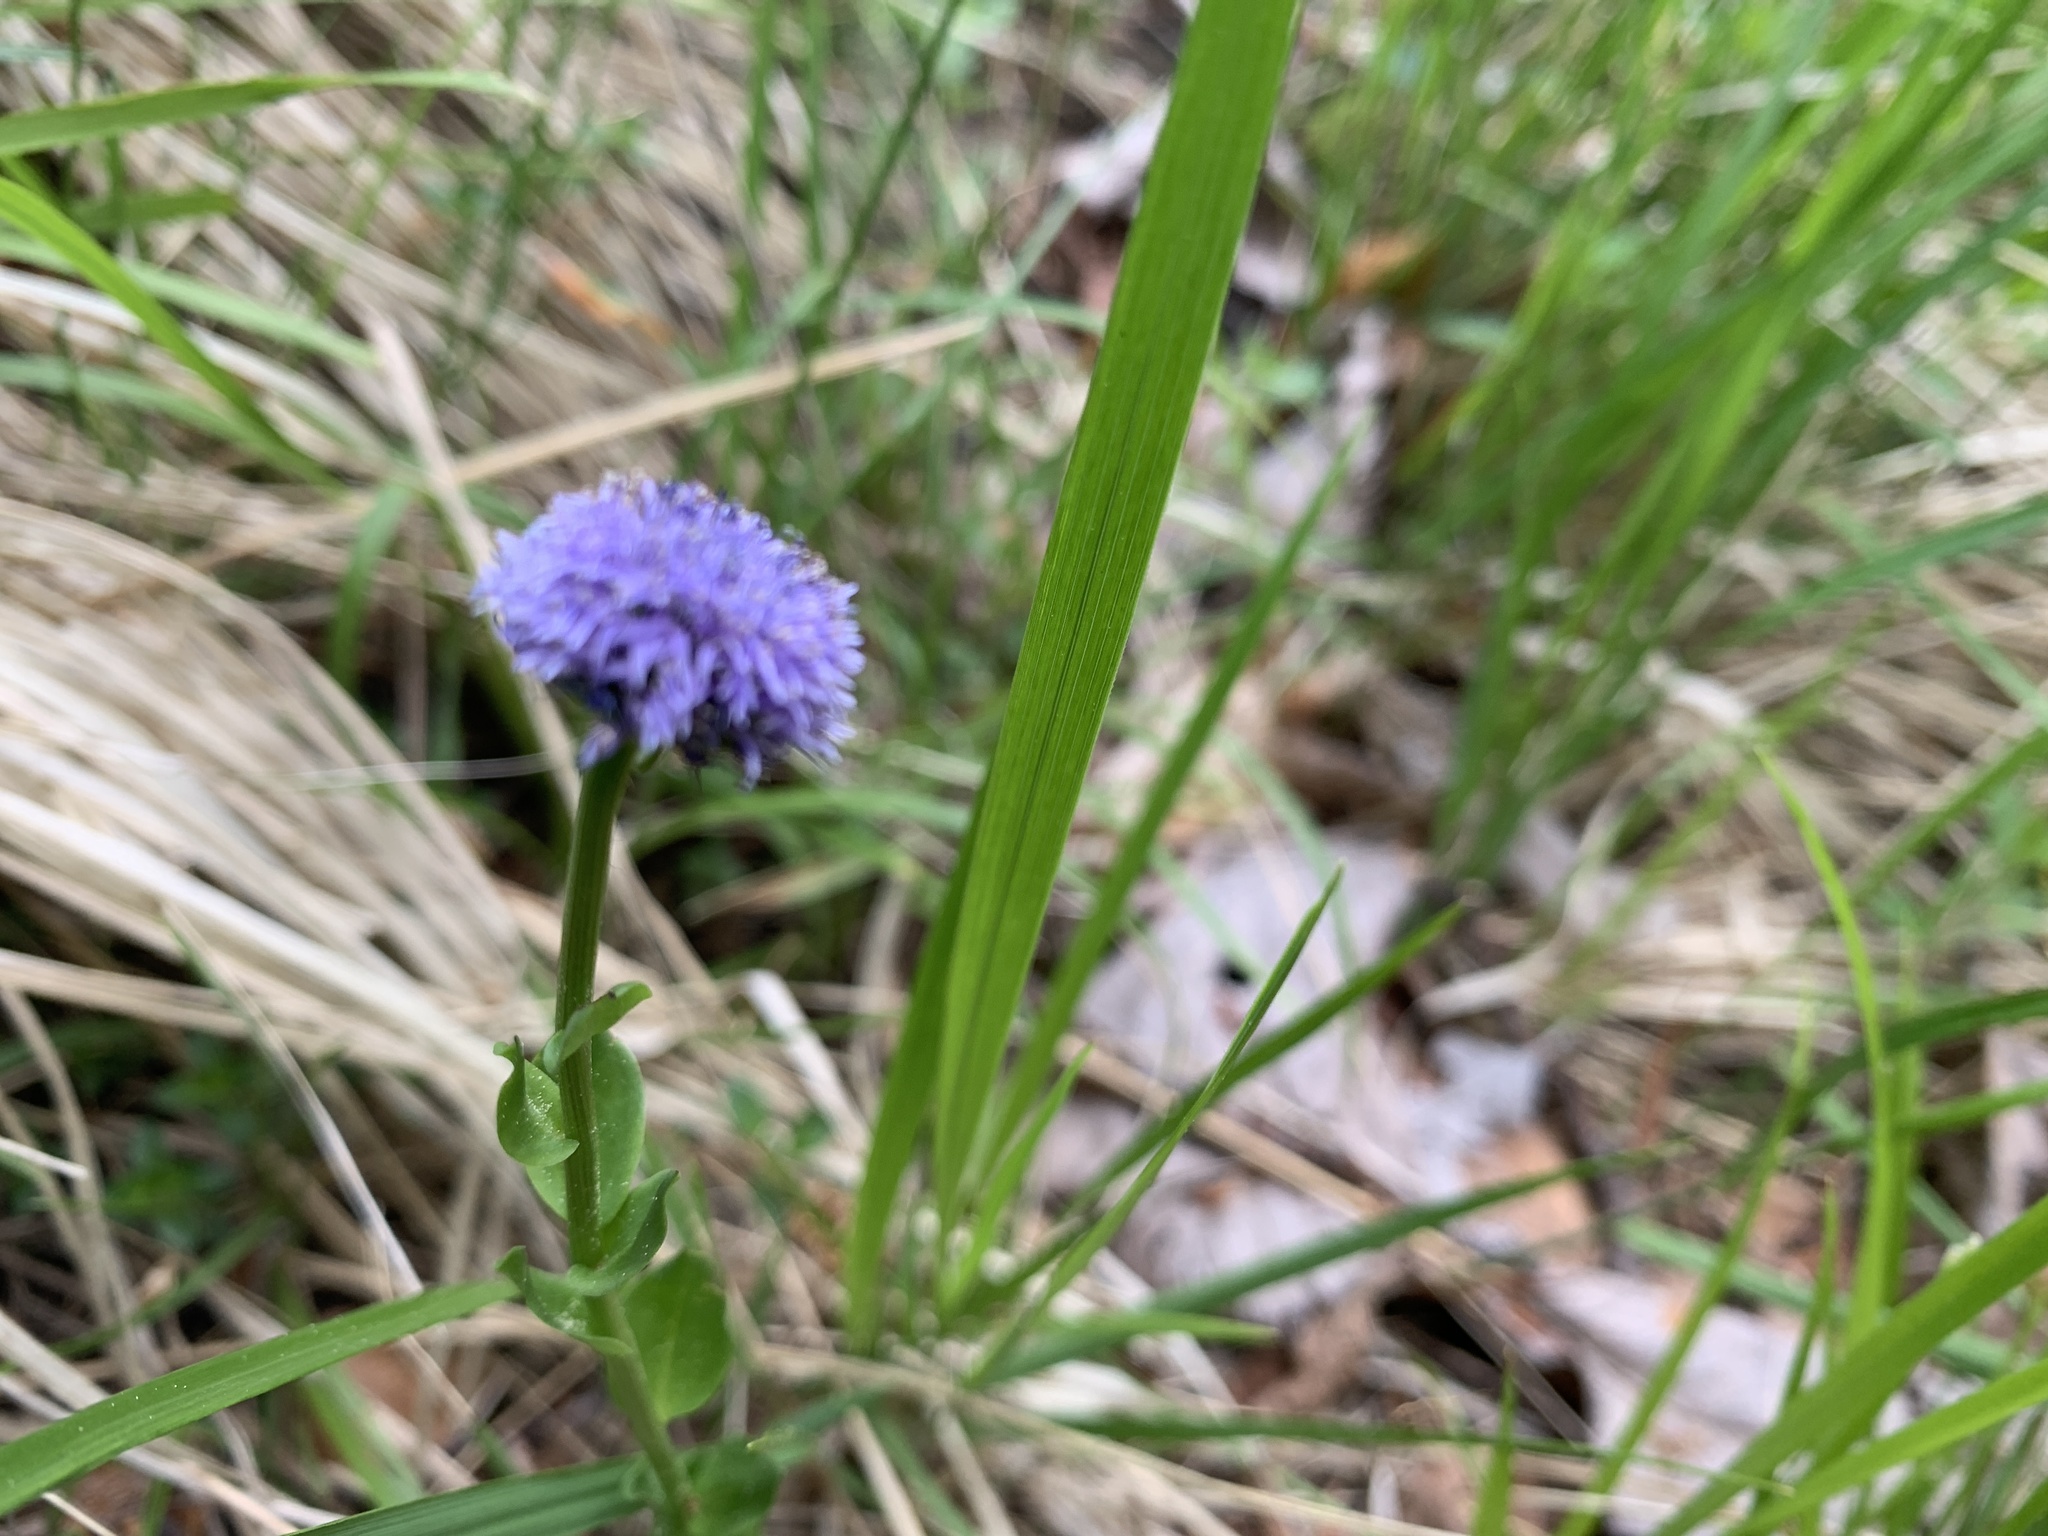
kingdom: Plantae
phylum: Tracheophyta
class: Magnoliopsida
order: Lamiales
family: Plantaginaceae
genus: Globularia
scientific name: Globularia bisnagarica
